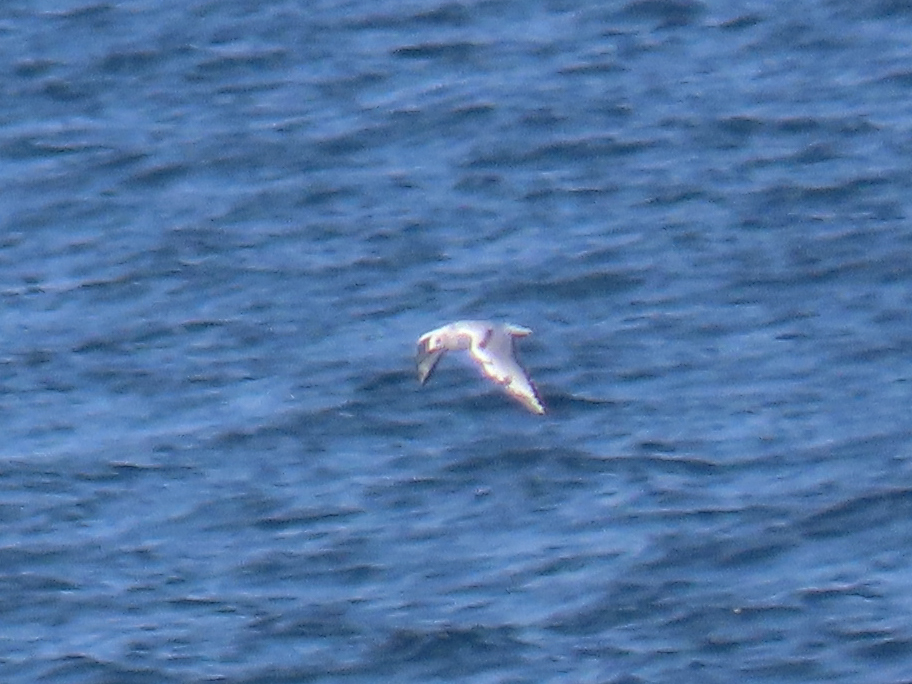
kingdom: Animalia
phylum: Chordata
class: Aves
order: Charadriiformes
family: Laridae
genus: Chroicocephalus
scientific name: Chroicocephalus philadelphia
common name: Bonaparte's gull
